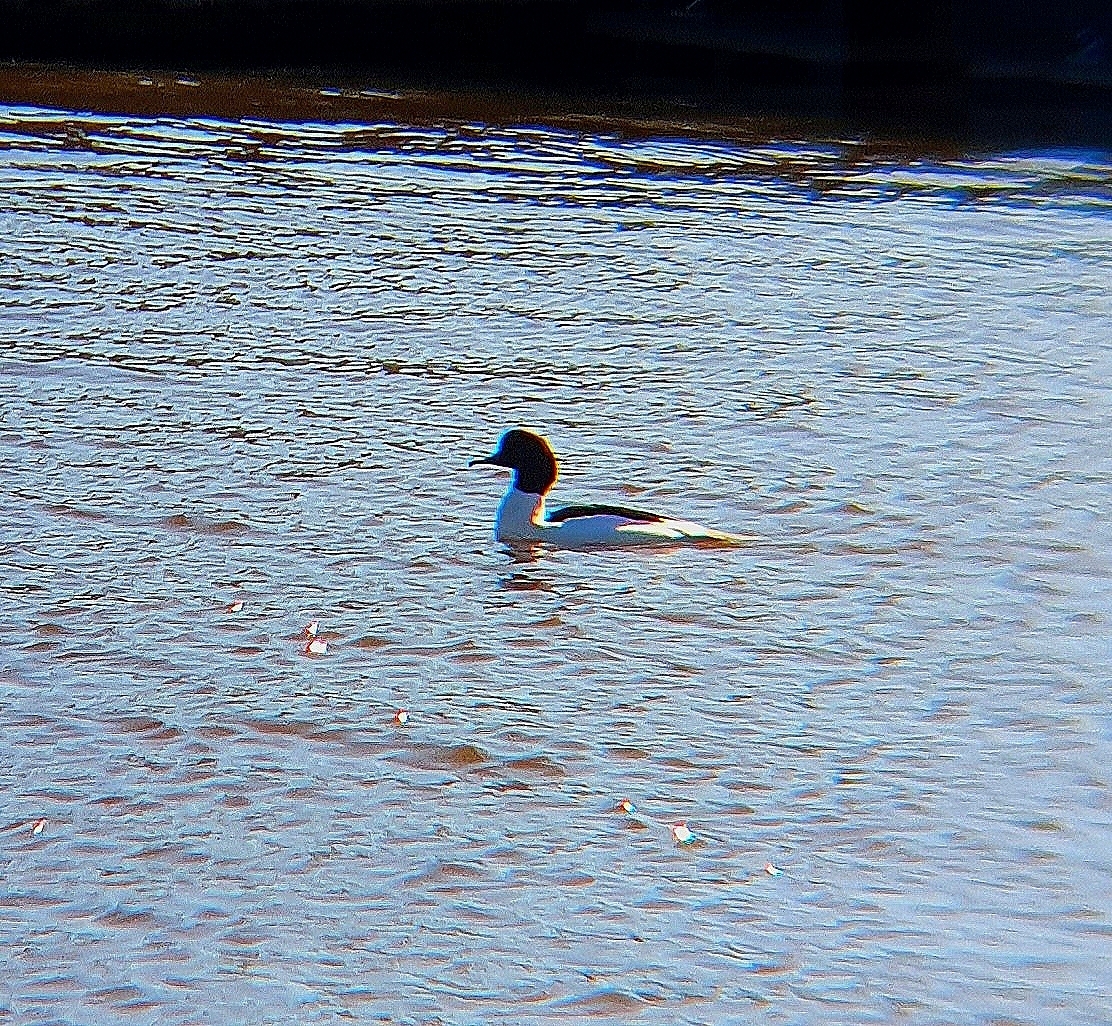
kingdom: Animalia
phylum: Chordata
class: Aves
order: Anseriformes
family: Anatidae
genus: Mergus
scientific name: Mergus merganser
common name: Common merganser
